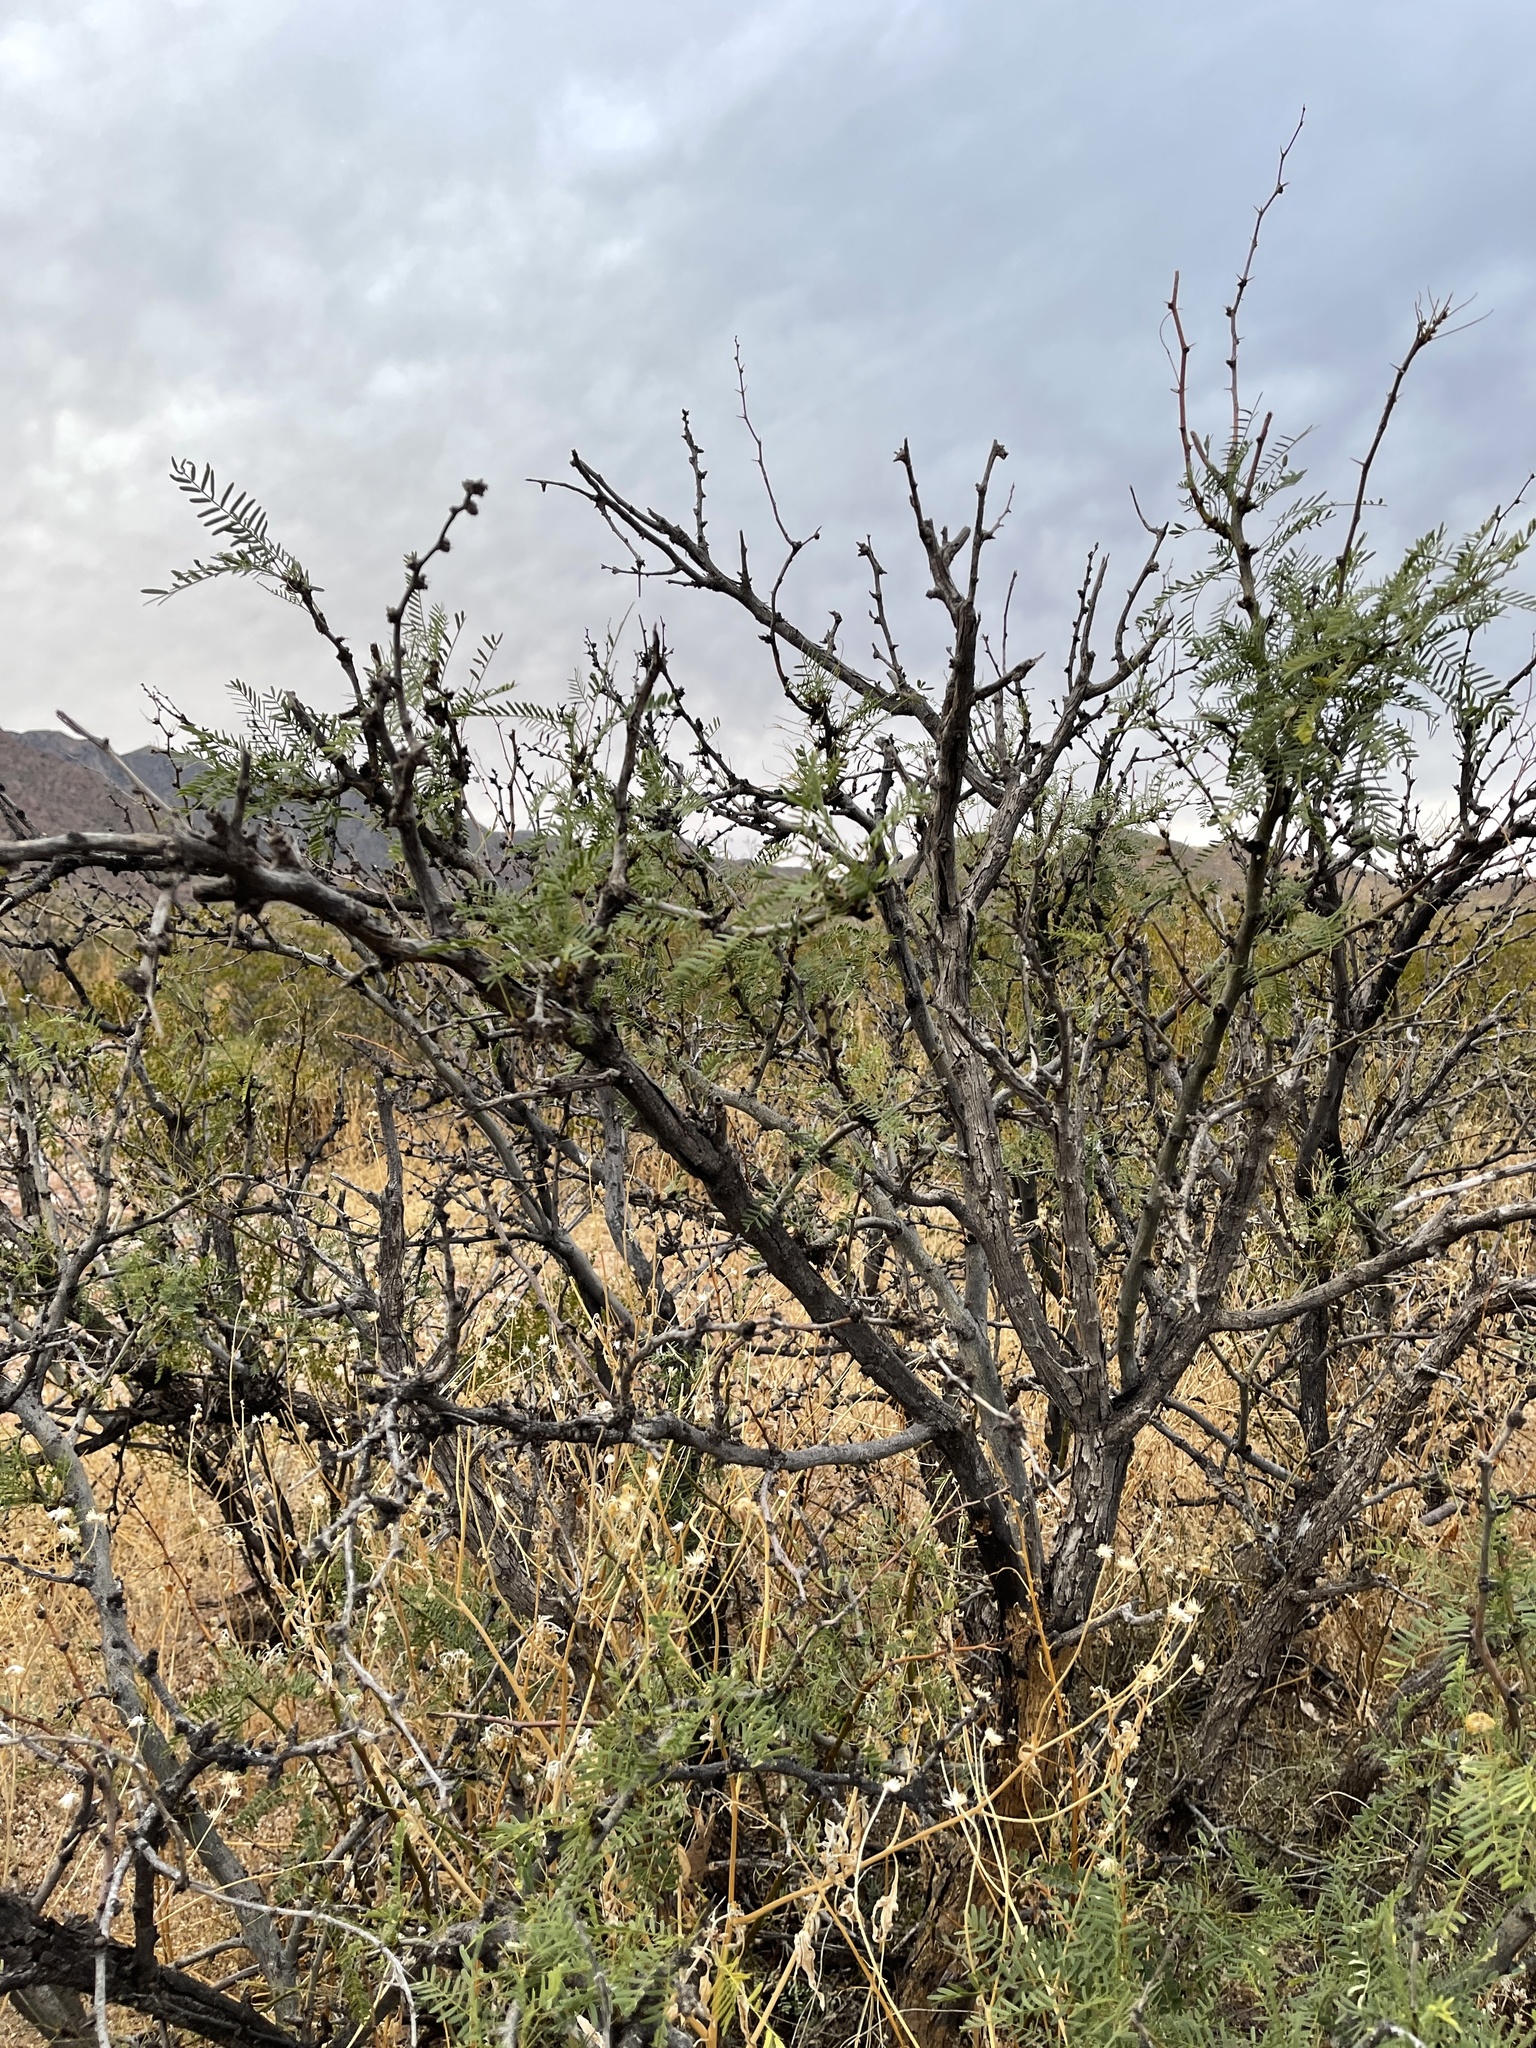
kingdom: Plantae
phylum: Tracheophyta
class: Magnoliopsida
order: Fabales
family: Fabaceae
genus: Prosopis
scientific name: Prosopis glandulosa
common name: Honey mesquite
